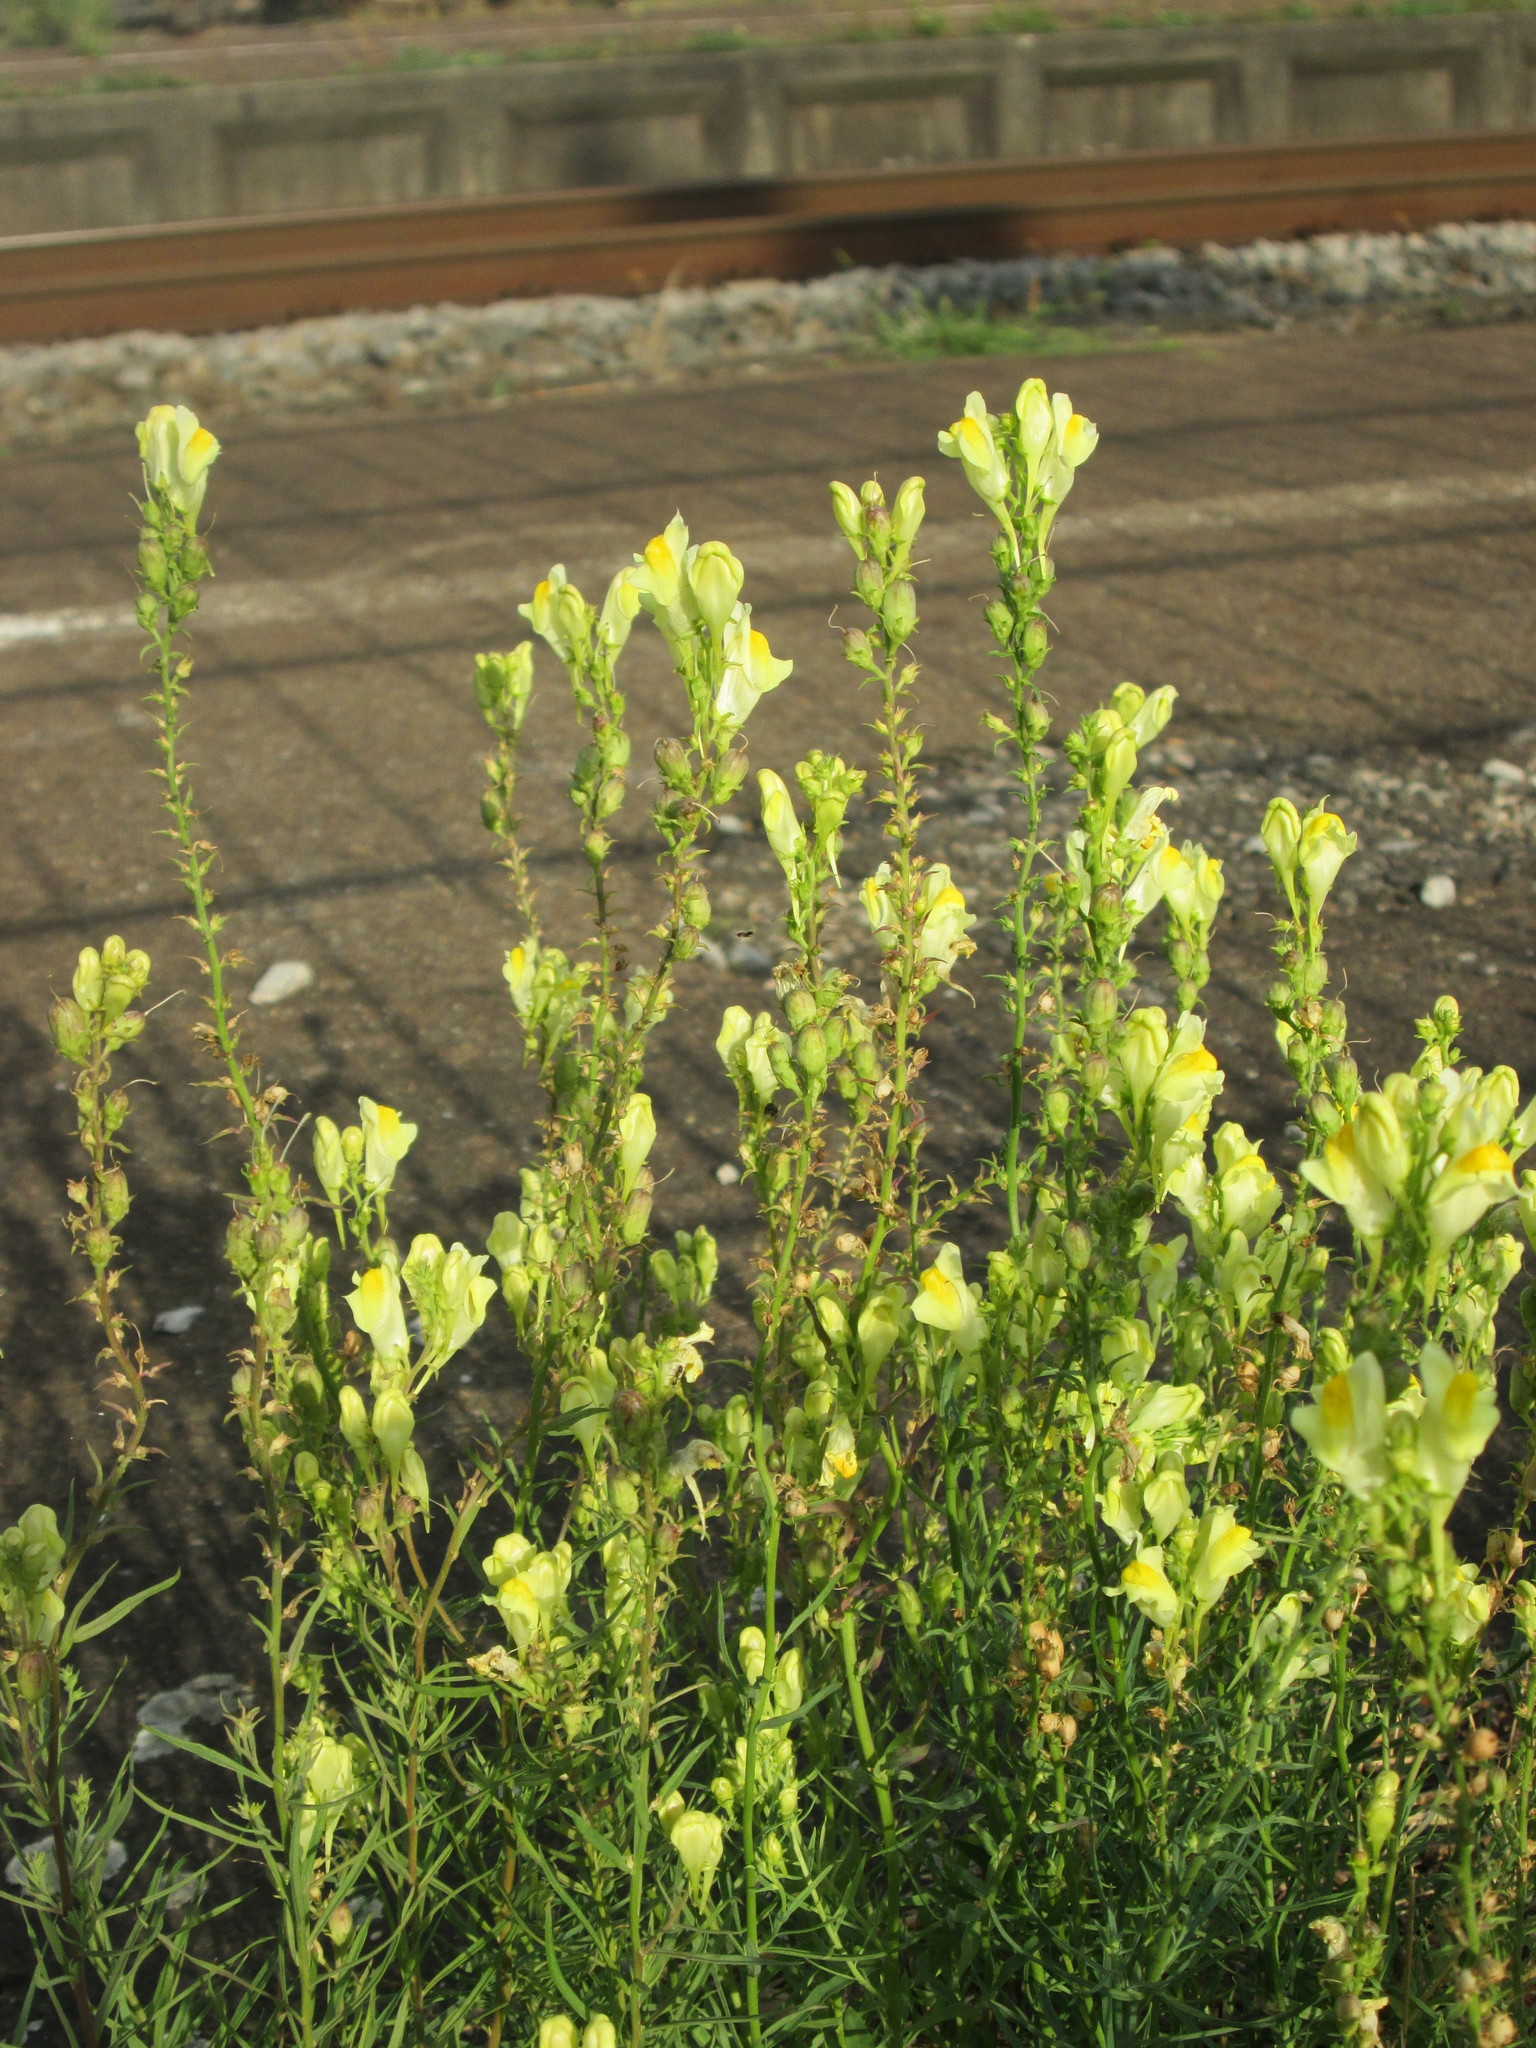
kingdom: Plantae
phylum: Tracheophyta
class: Magnoliopsida
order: Lamiales
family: Plantaginaceae
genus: Linaria
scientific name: Linaria vulgaris
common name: Butter and eggs
